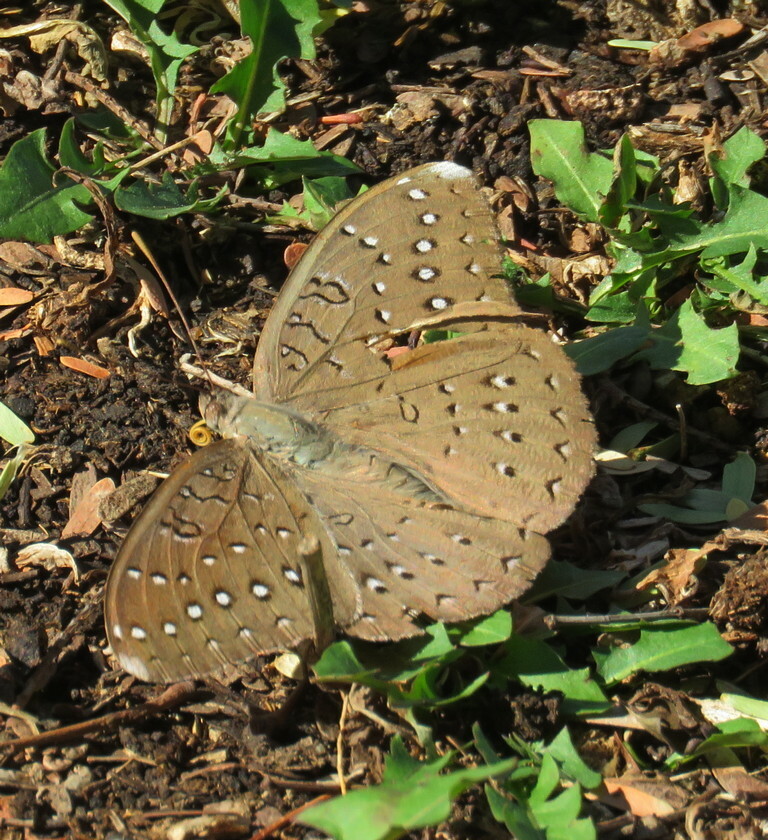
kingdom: Animalia
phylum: Arthropoda
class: Insecta
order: Lepidoptera
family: Nymphalidae
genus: Hamanumida
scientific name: Hamanumida daedalus
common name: Guinea-fowl butterfly
